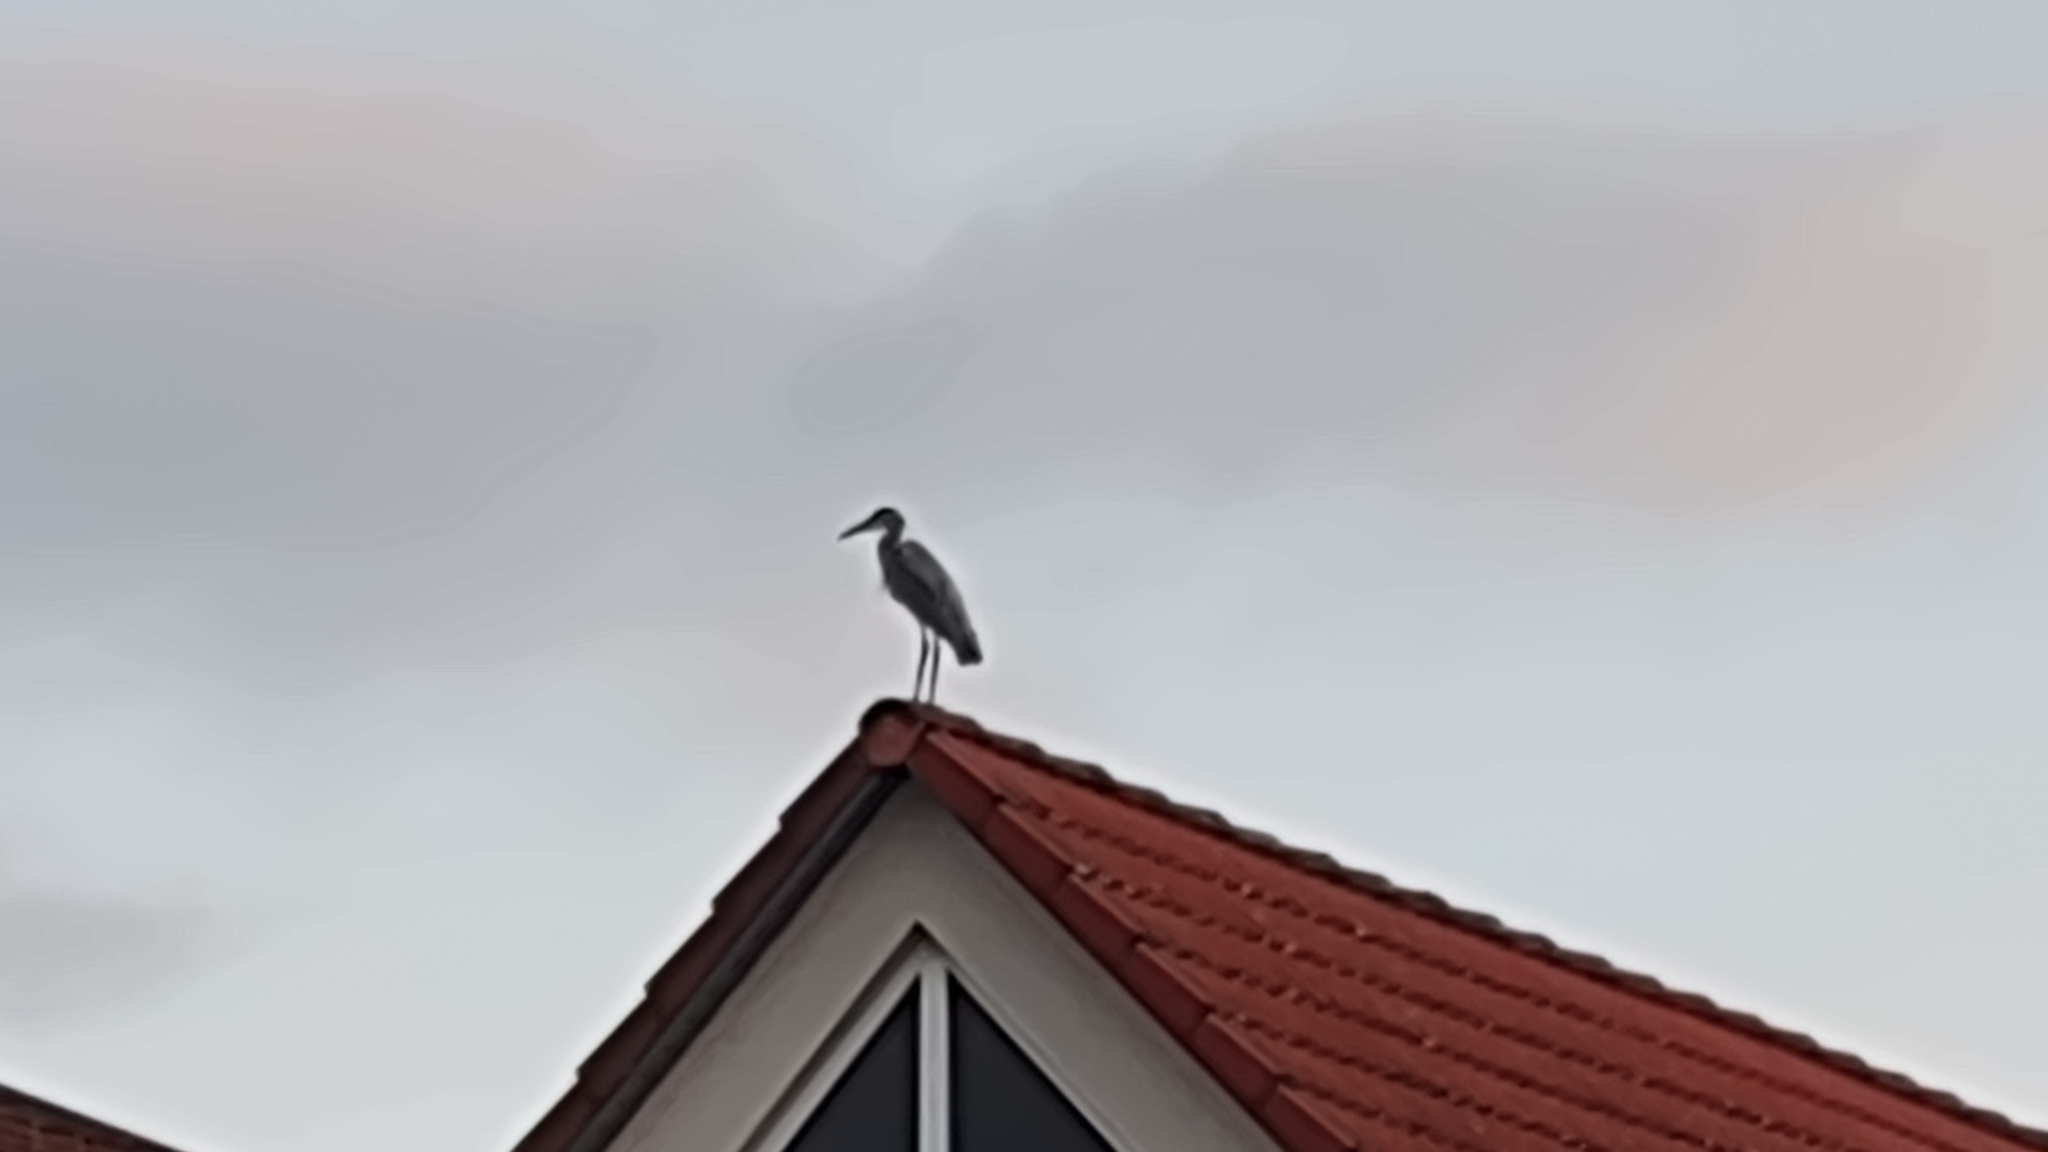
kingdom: Animalia
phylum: Chordata
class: Aves
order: Pelecaniformes
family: Ardeidae
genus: Ardea
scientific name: Ardea cinerea
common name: Grey heron
